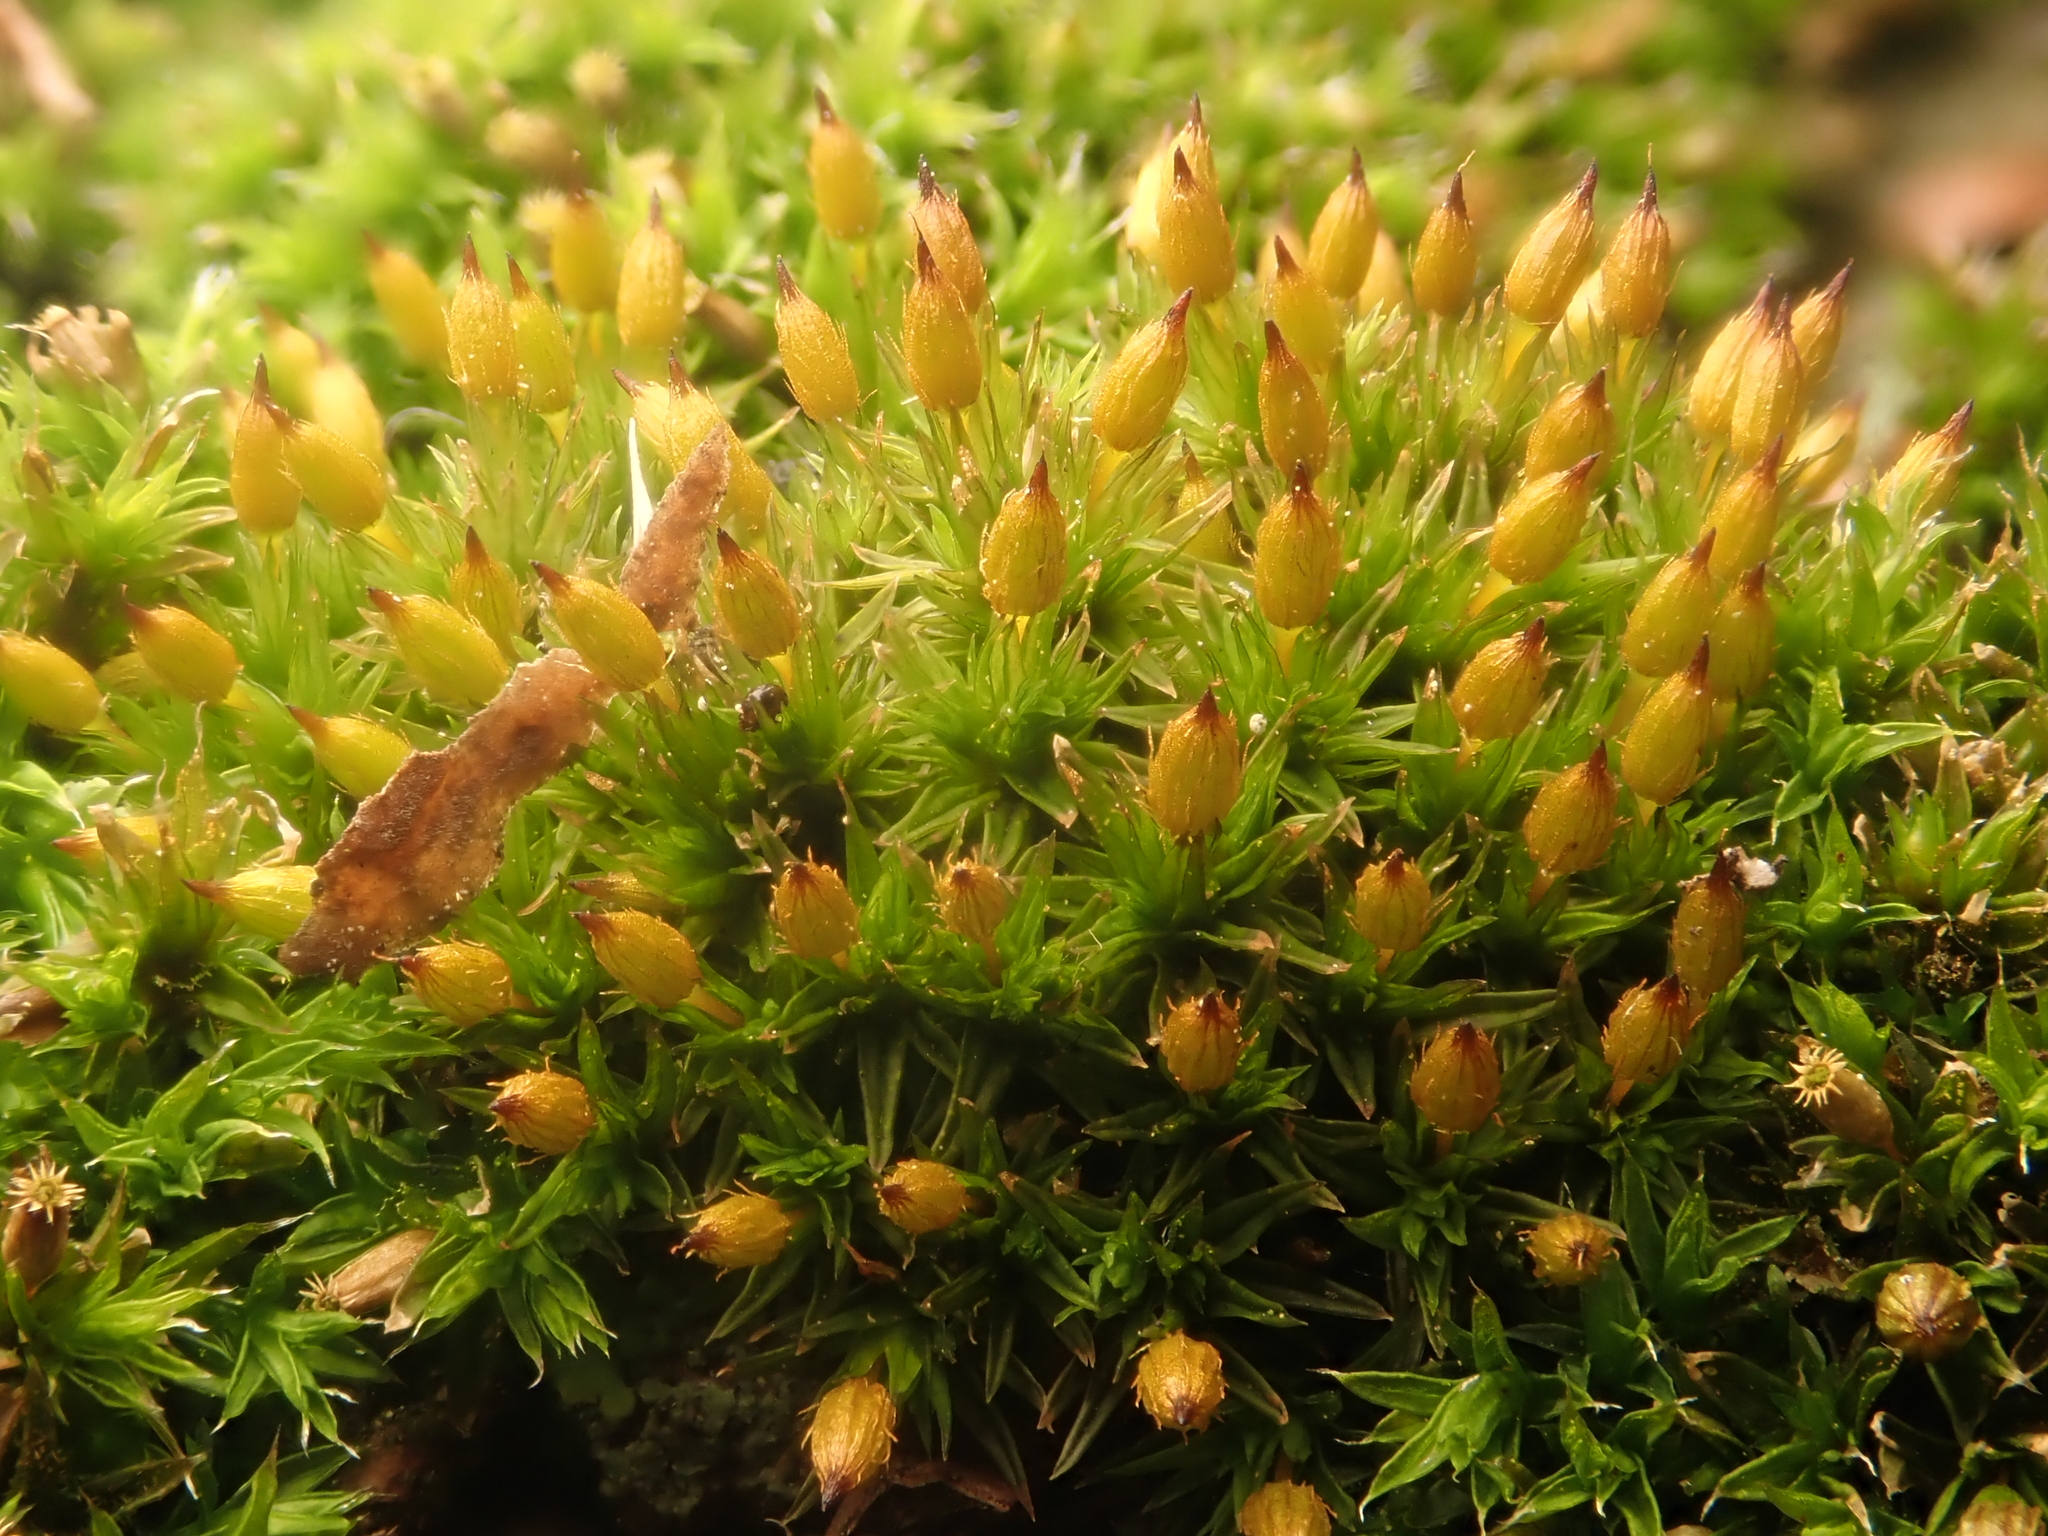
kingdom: Plantae
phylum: Bryophyta
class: Bryopsida
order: Orthotrichales
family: Orthotrichaceae
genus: Orthotrichum
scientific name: Orthotrichum anomalum
